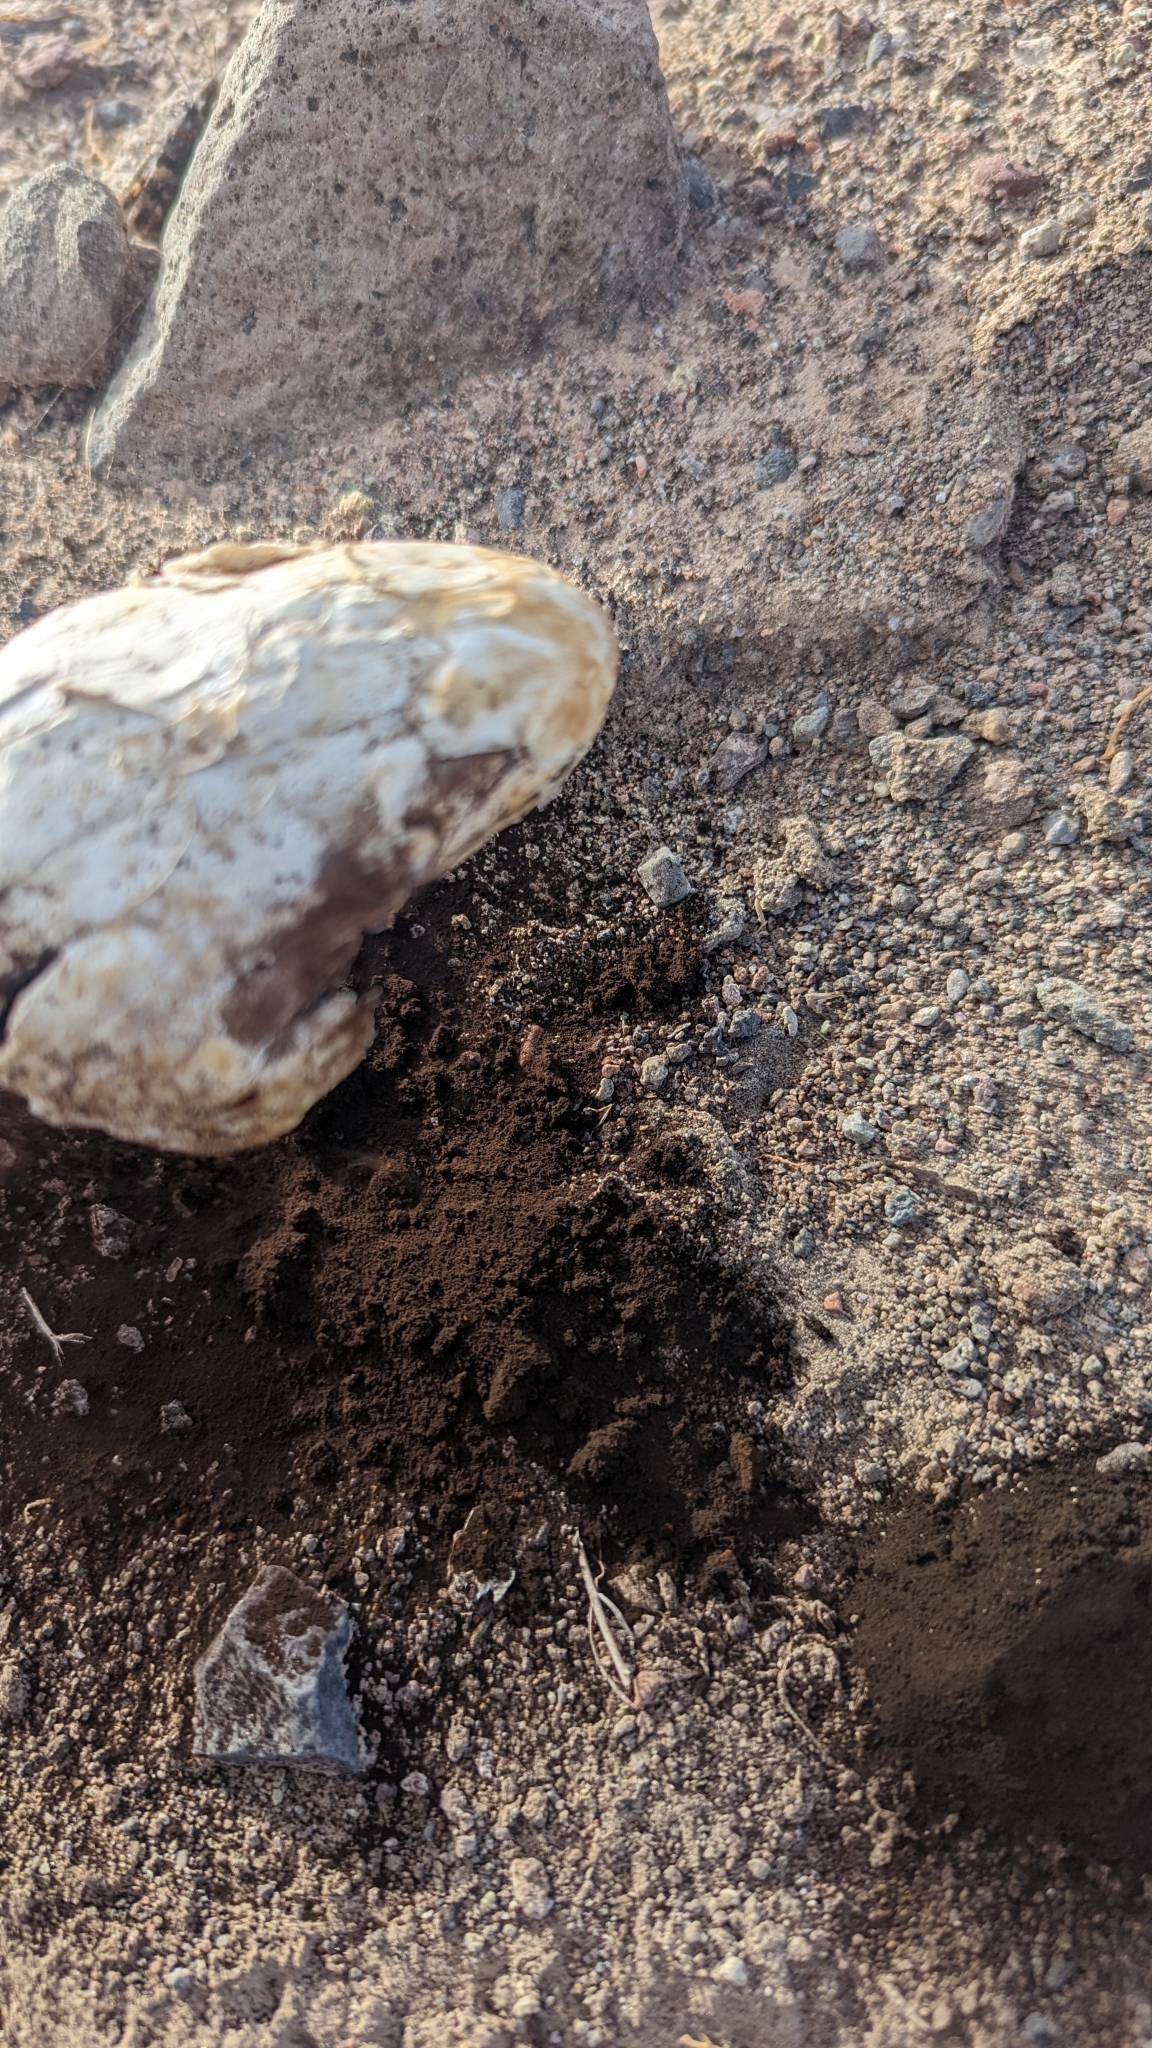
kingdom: Fungi
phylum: Basidiomycota
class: Agaricomycetes
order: Agaricales
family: Agaricaceae
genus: Podaxis
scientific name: Podaxis pistillaris
